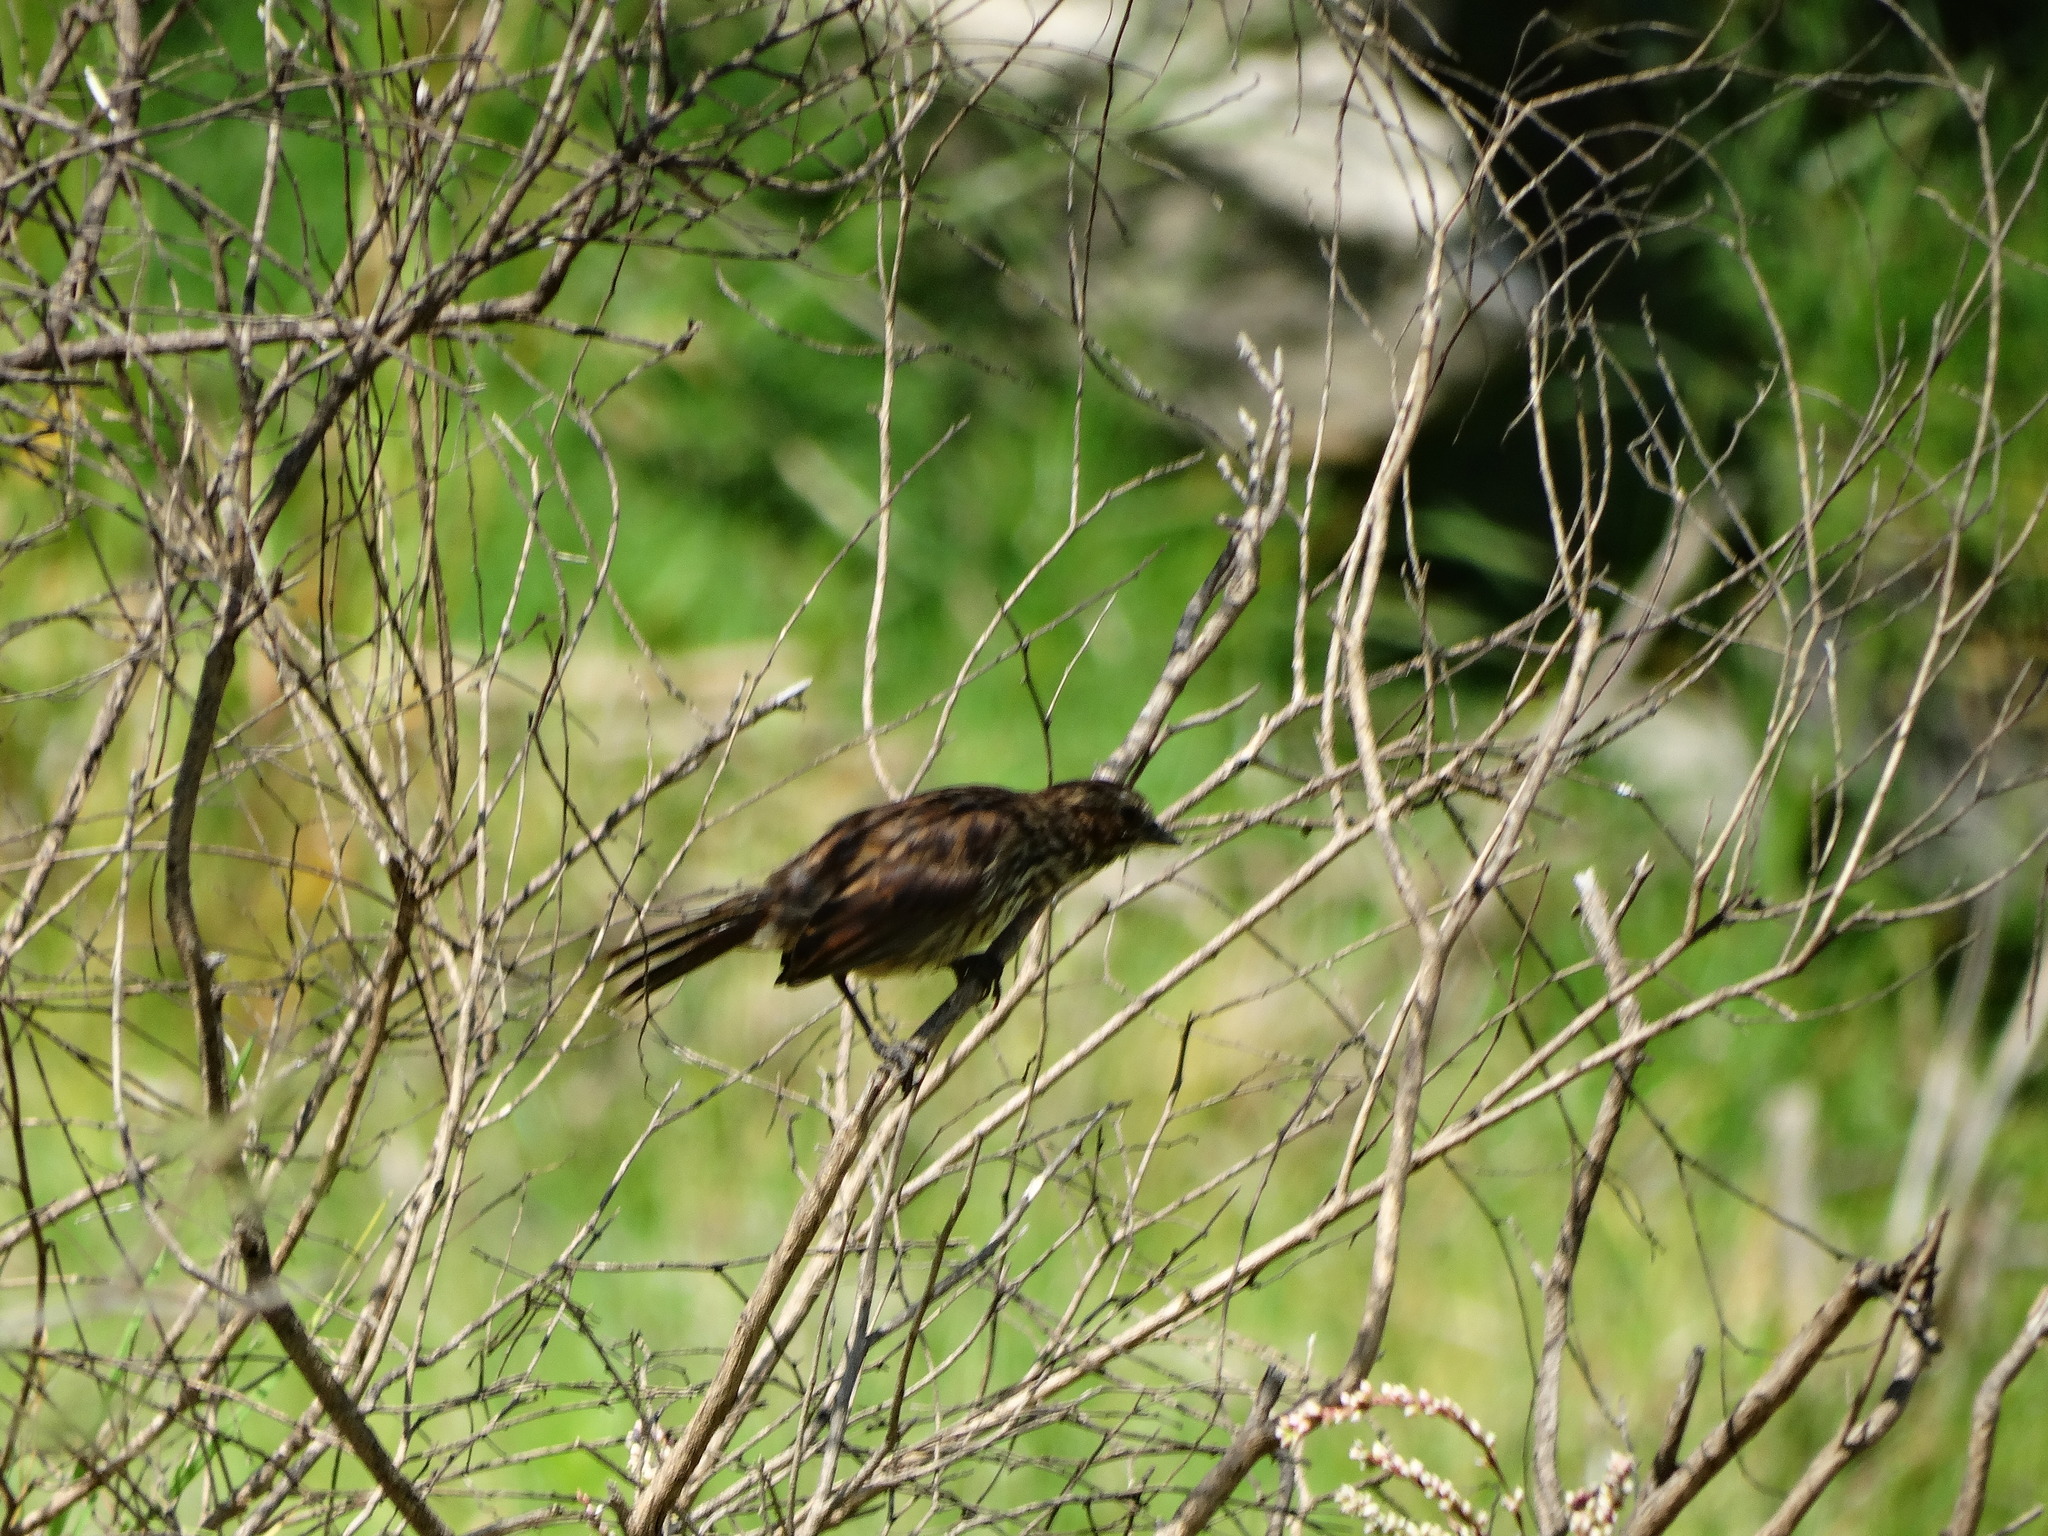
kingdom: Animalia
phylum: Chordata
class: Aves
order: Passeriformes
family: Passerellidae
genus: Melospiza
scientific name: Melospiza melodia
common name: Song sparrow
